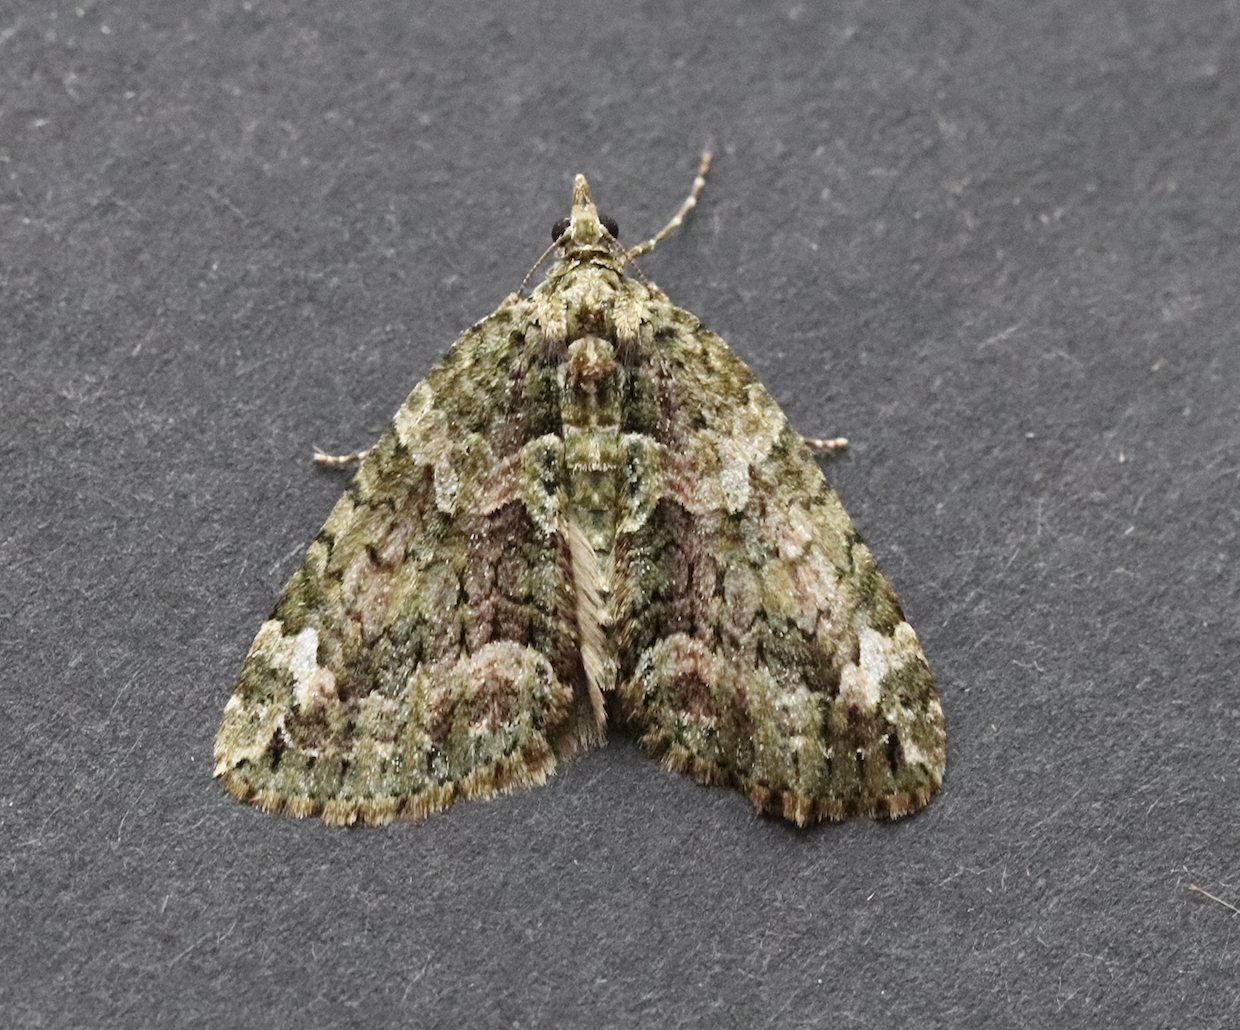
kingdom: Animalia
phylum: Arthropoda
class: Insecta
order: Lepidoptera
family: Geometridae
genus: Chloroclysta
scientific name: Chloroclysta siterata
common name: Red-green carpet
